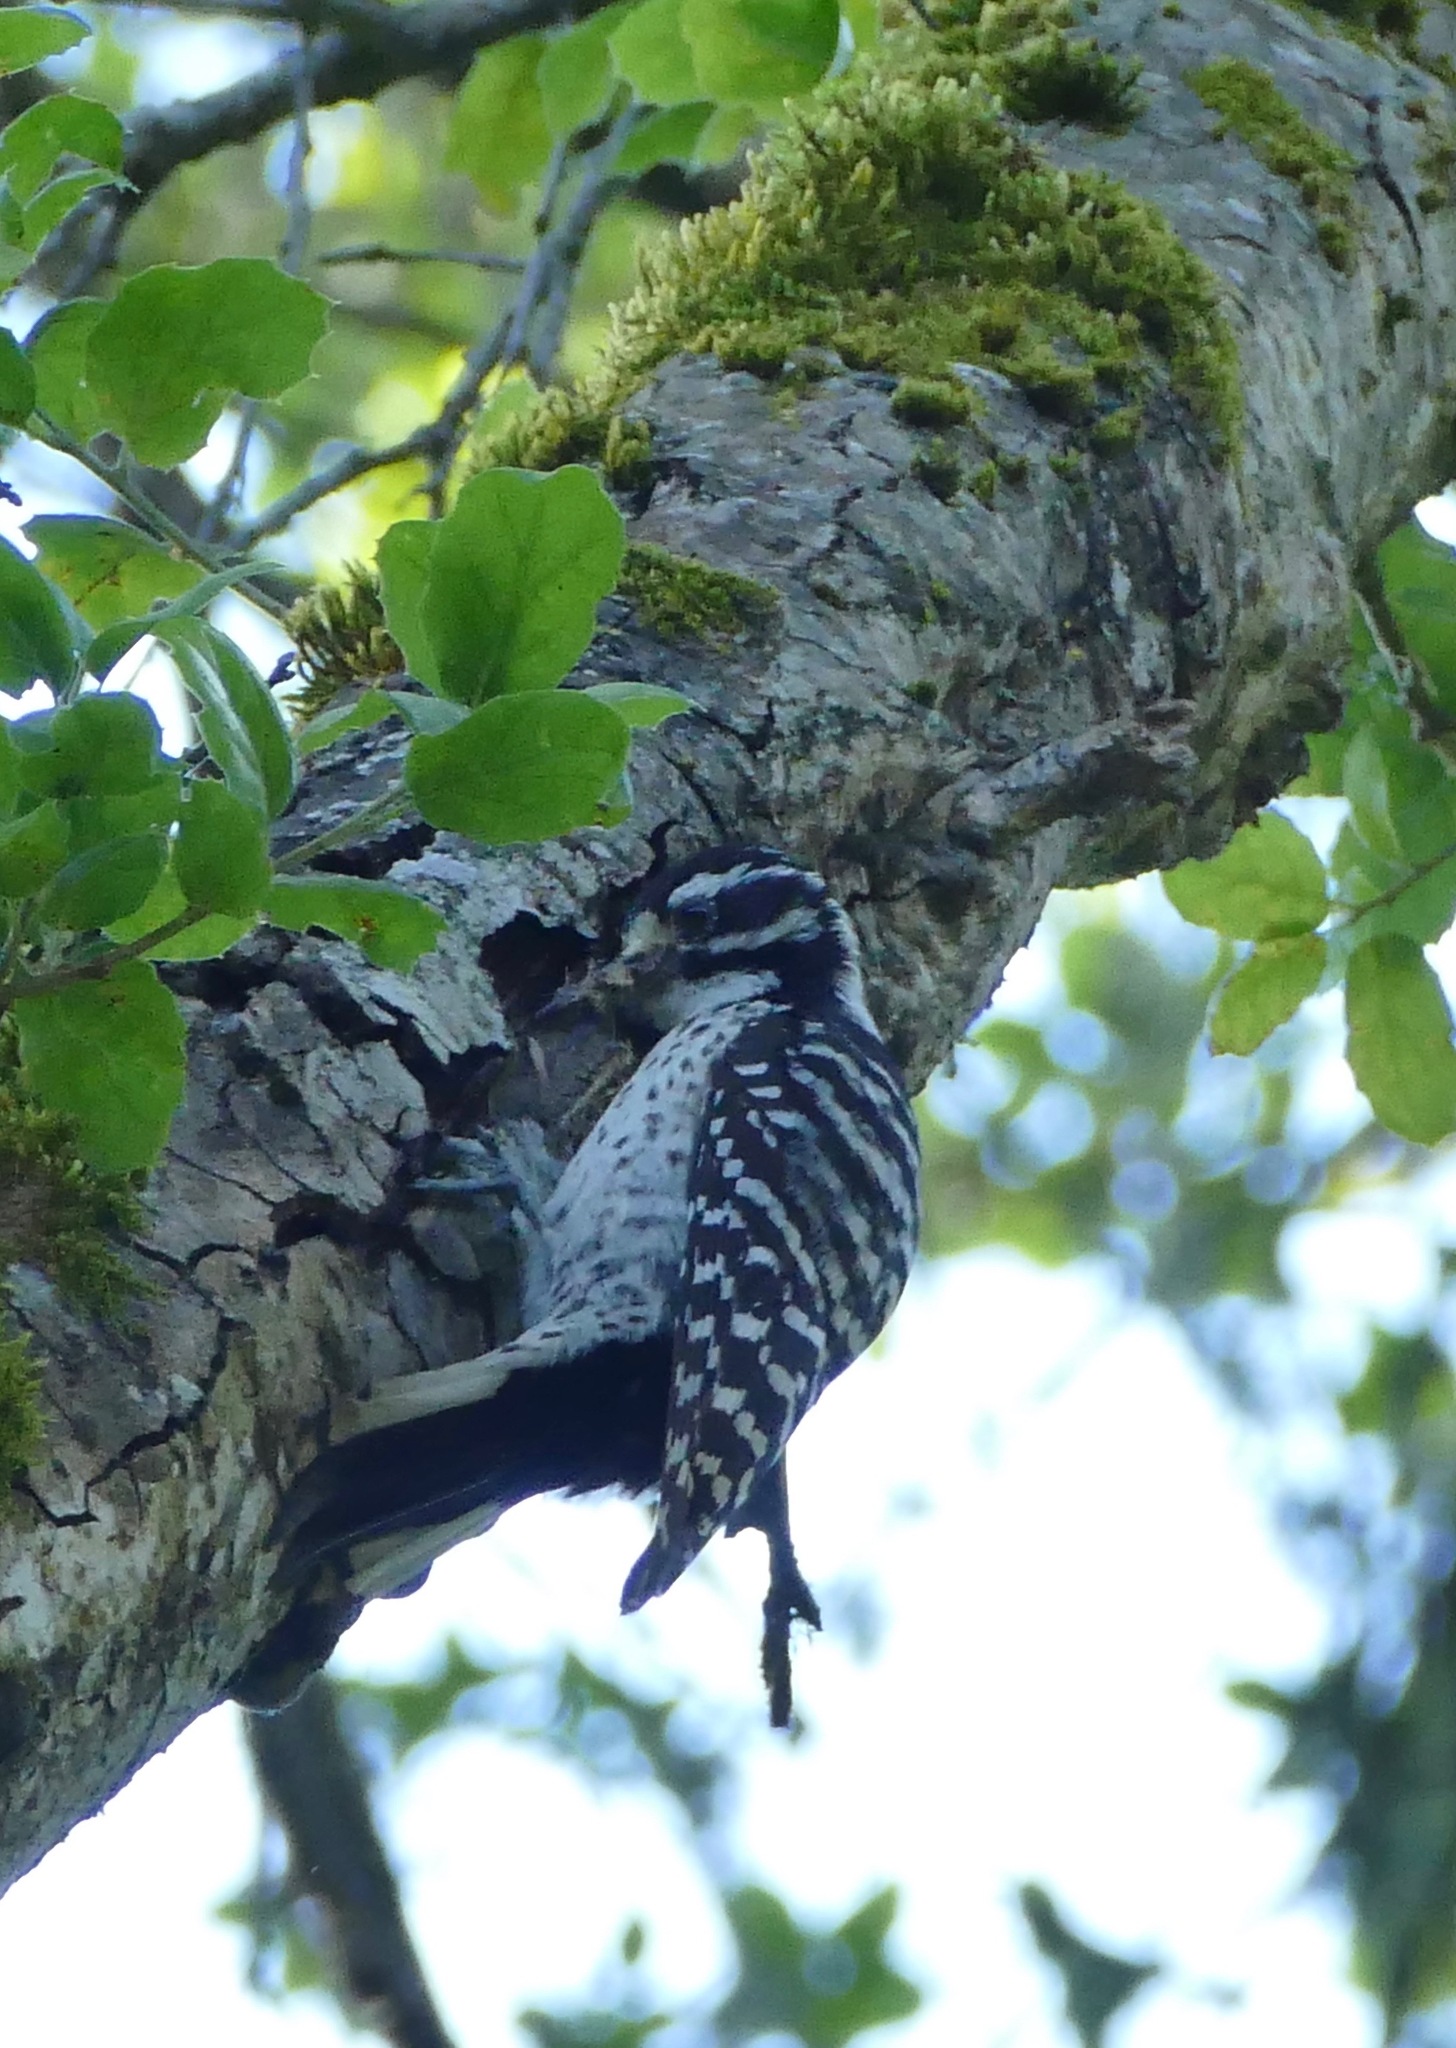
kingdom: Animalia
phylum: Chordata
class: Aves
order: Piciformes
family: Picidae
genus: Dryobates
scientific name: Dryobates nuttallii
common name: Nuttall's woodpecker
